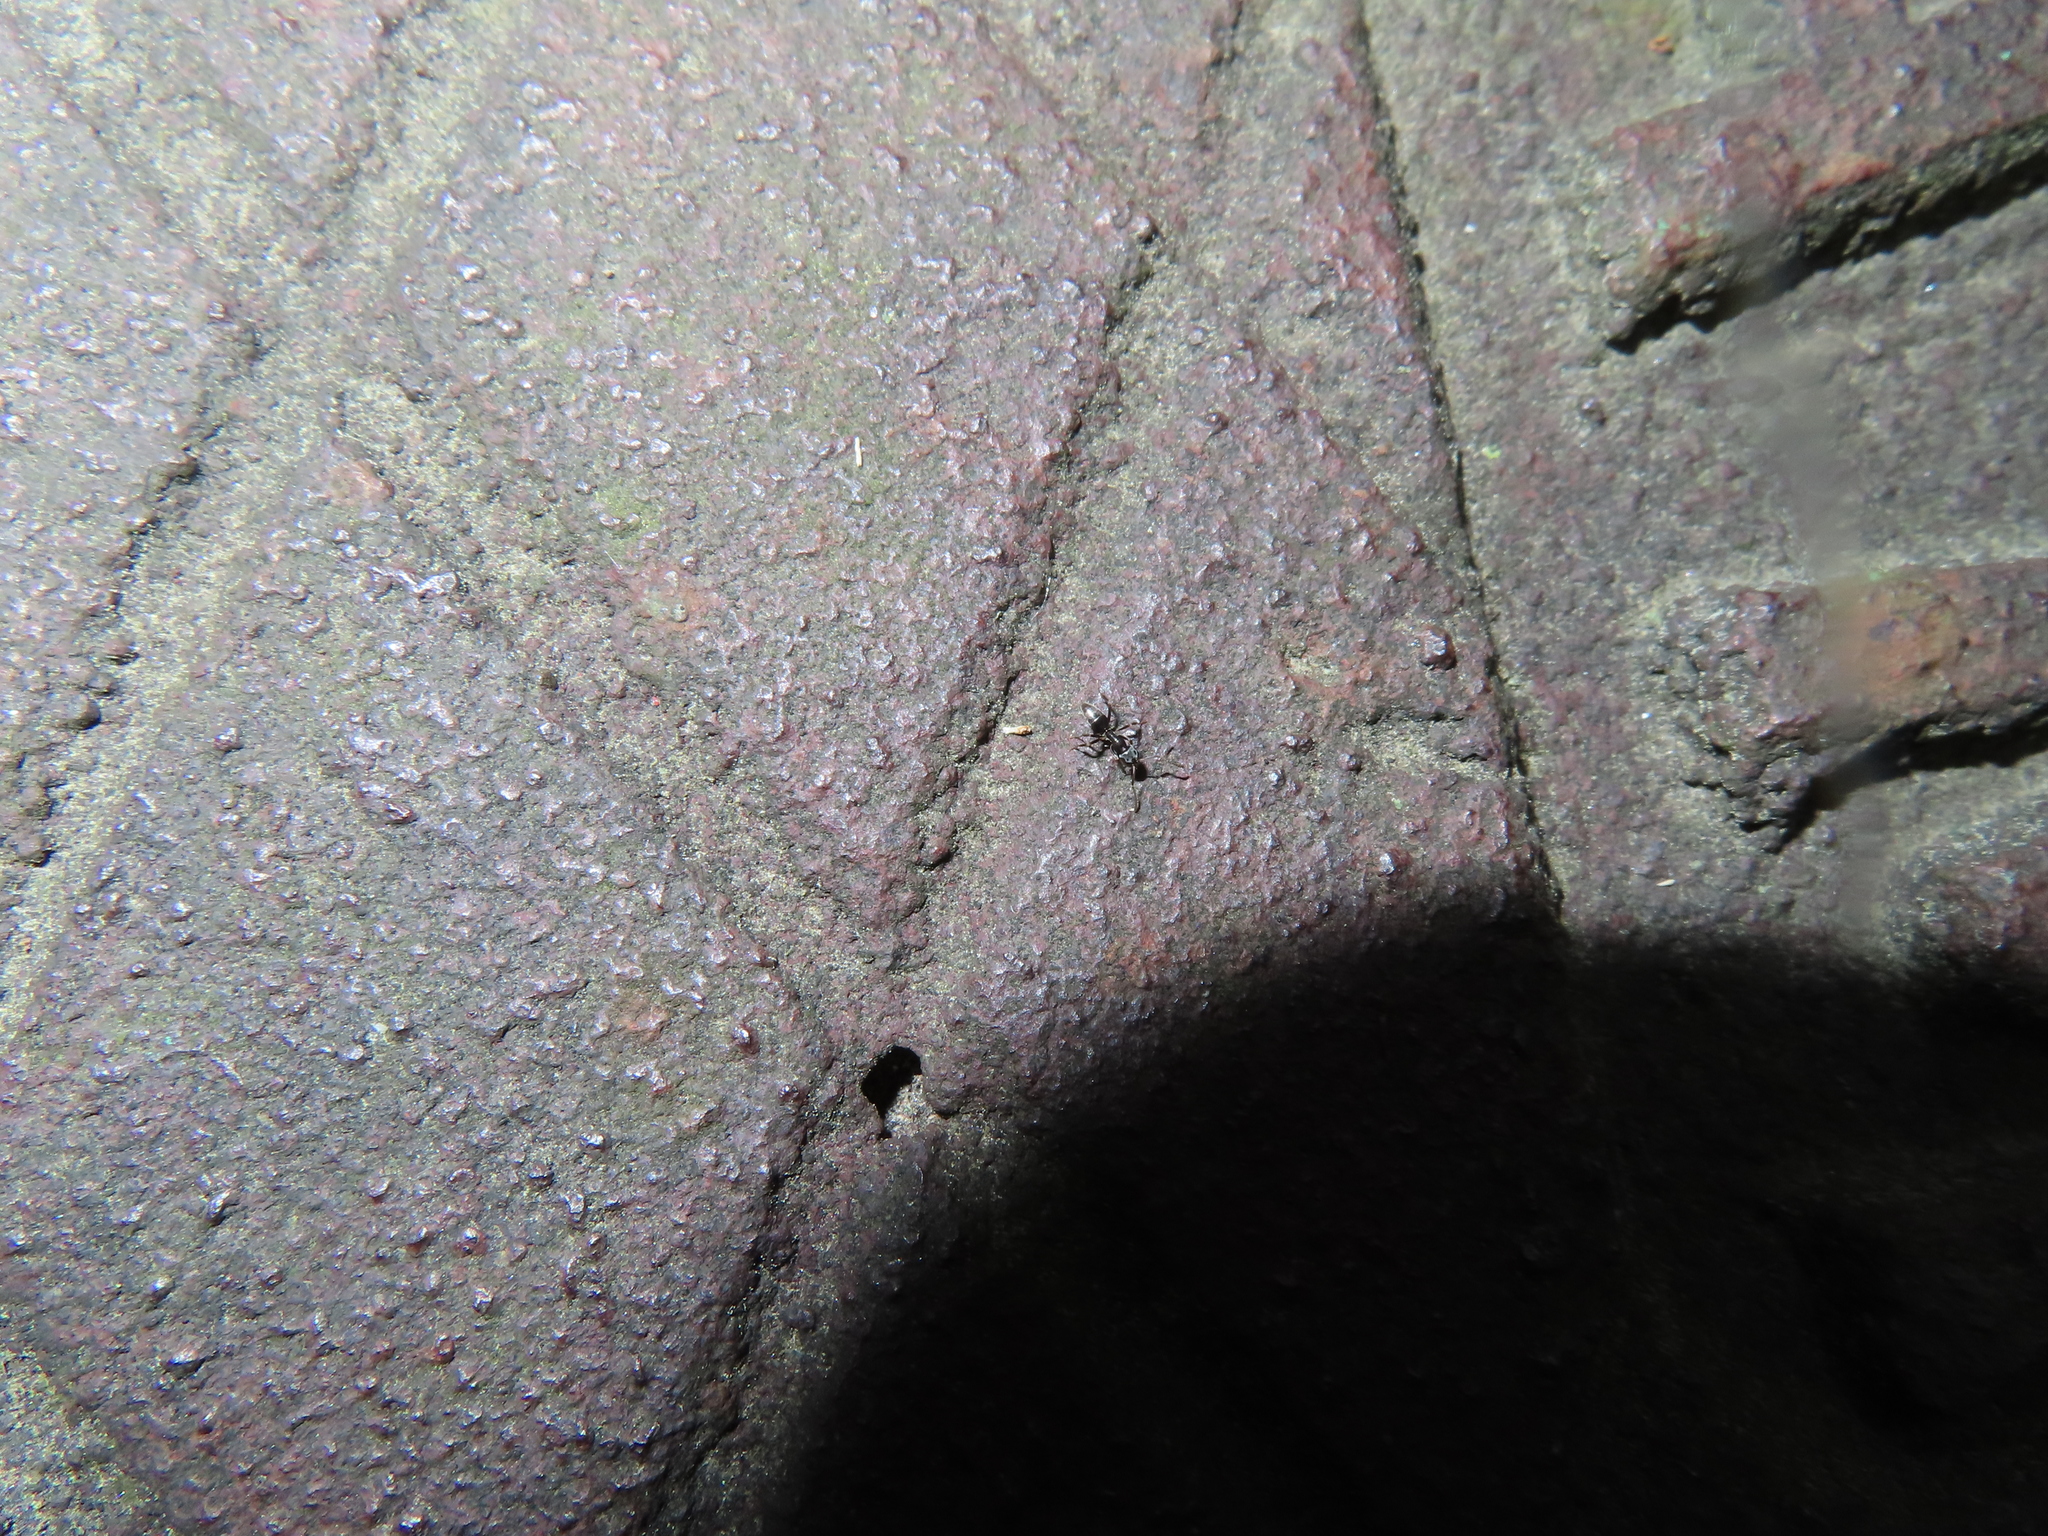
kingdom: Animalia
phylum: Arthropoda
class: Insecta
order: Hymenoptera
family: Formicidae
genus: Tapinoma
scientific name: Tapinoma sessile
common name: Odorous house ant
